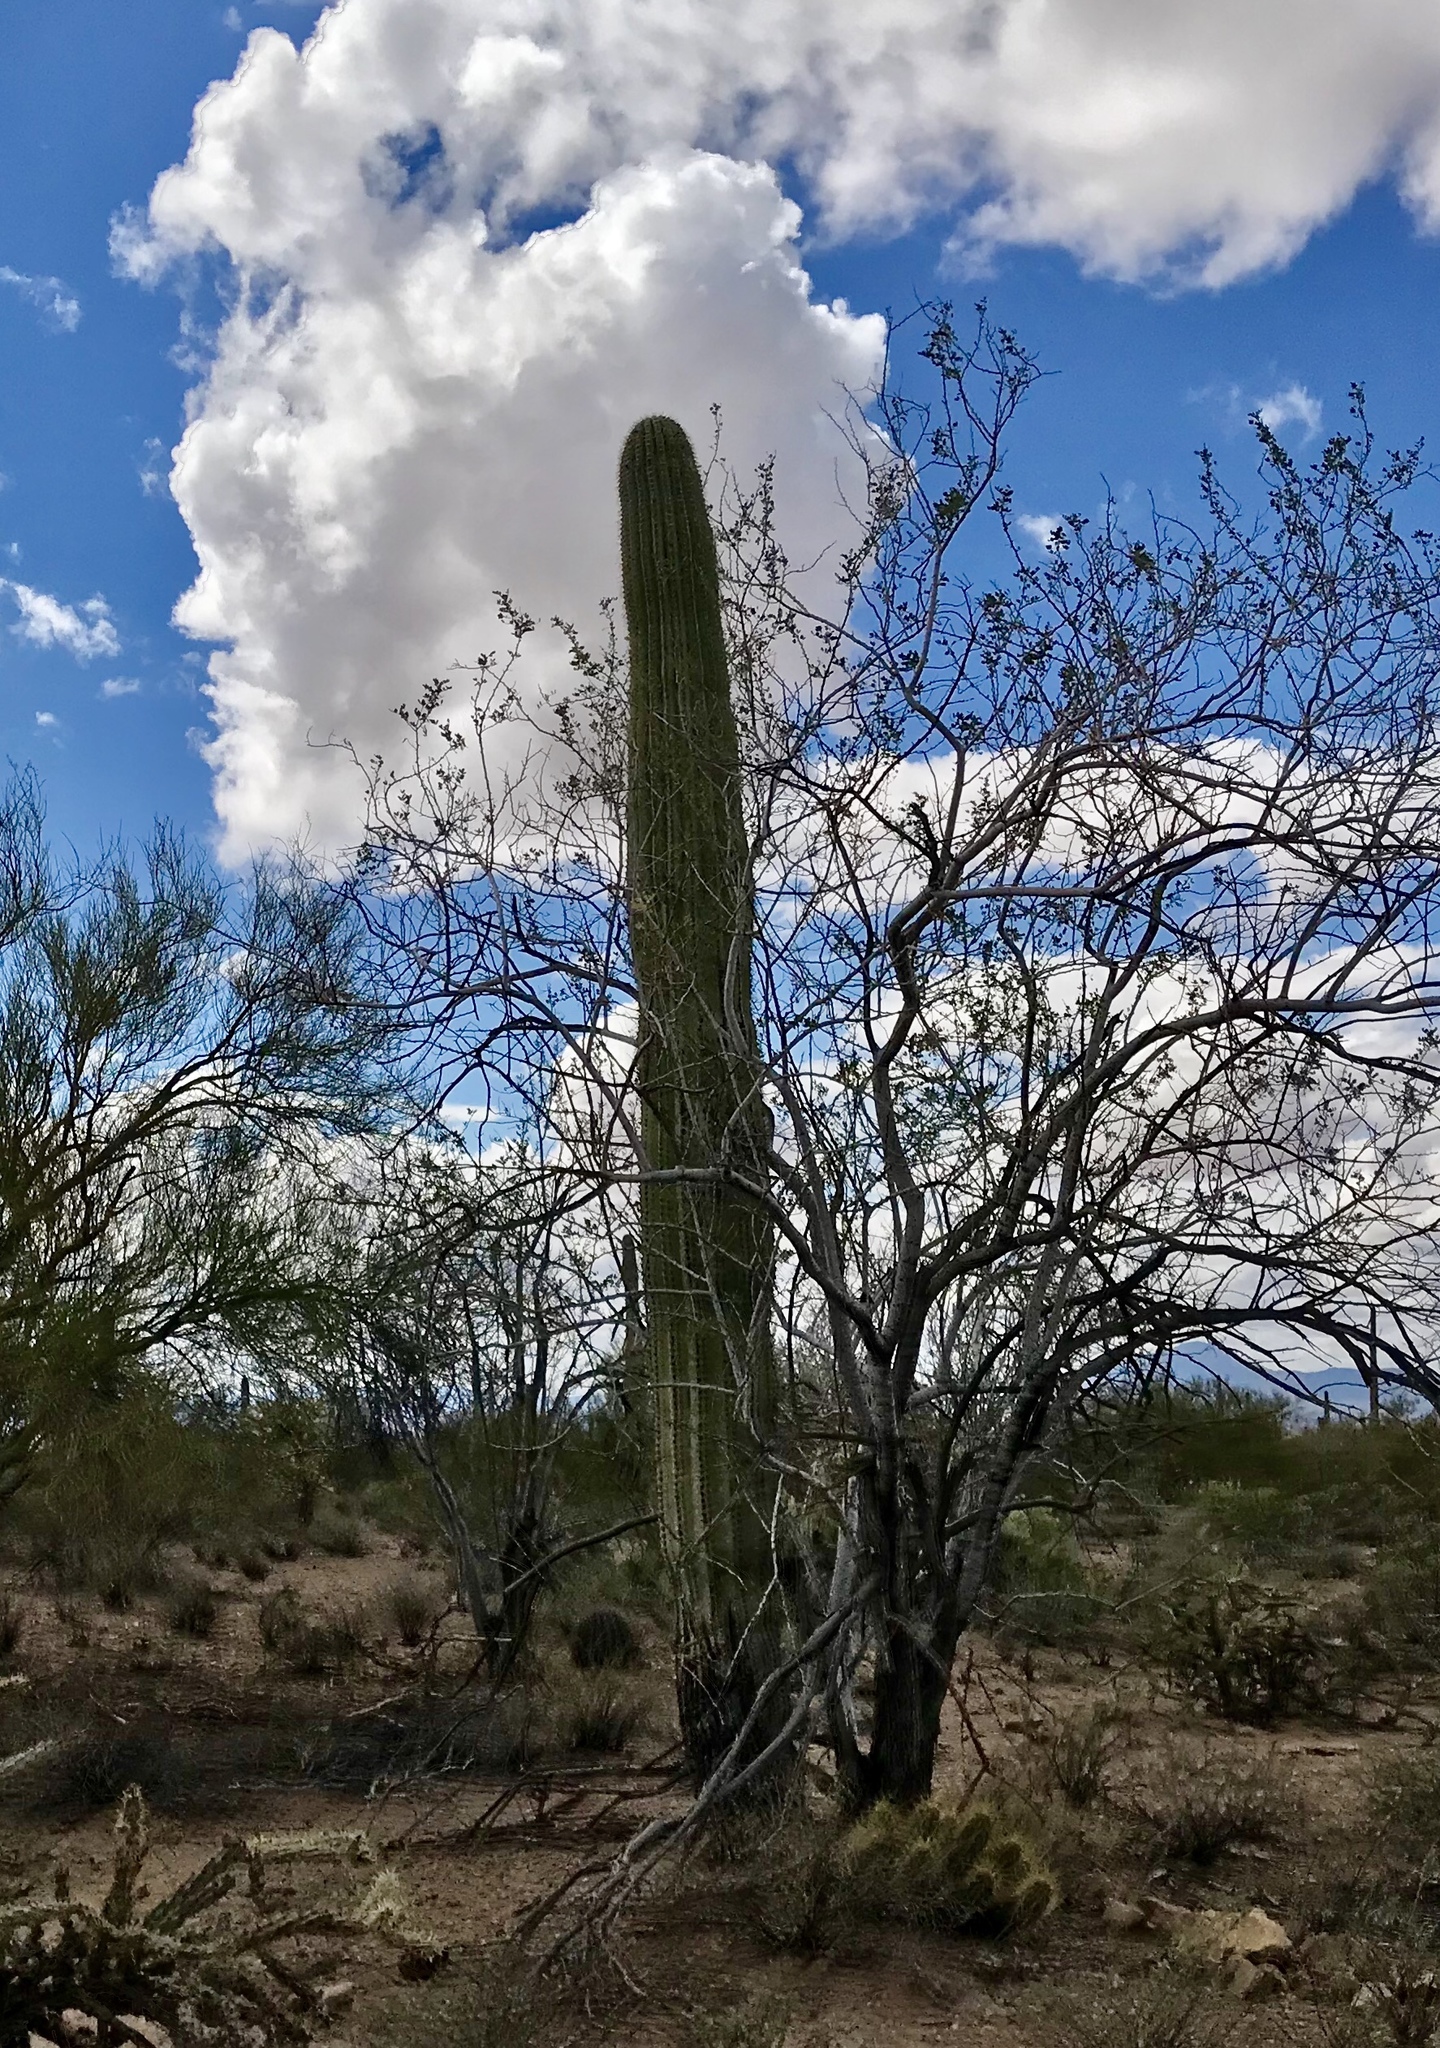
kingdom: Plantae
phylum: Tracheophyta
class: Magnoliopsida
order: Caryophyllales
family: Cactaceae
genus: Carnegiea
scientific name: Carnegiea gigantea
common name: Saguaro
